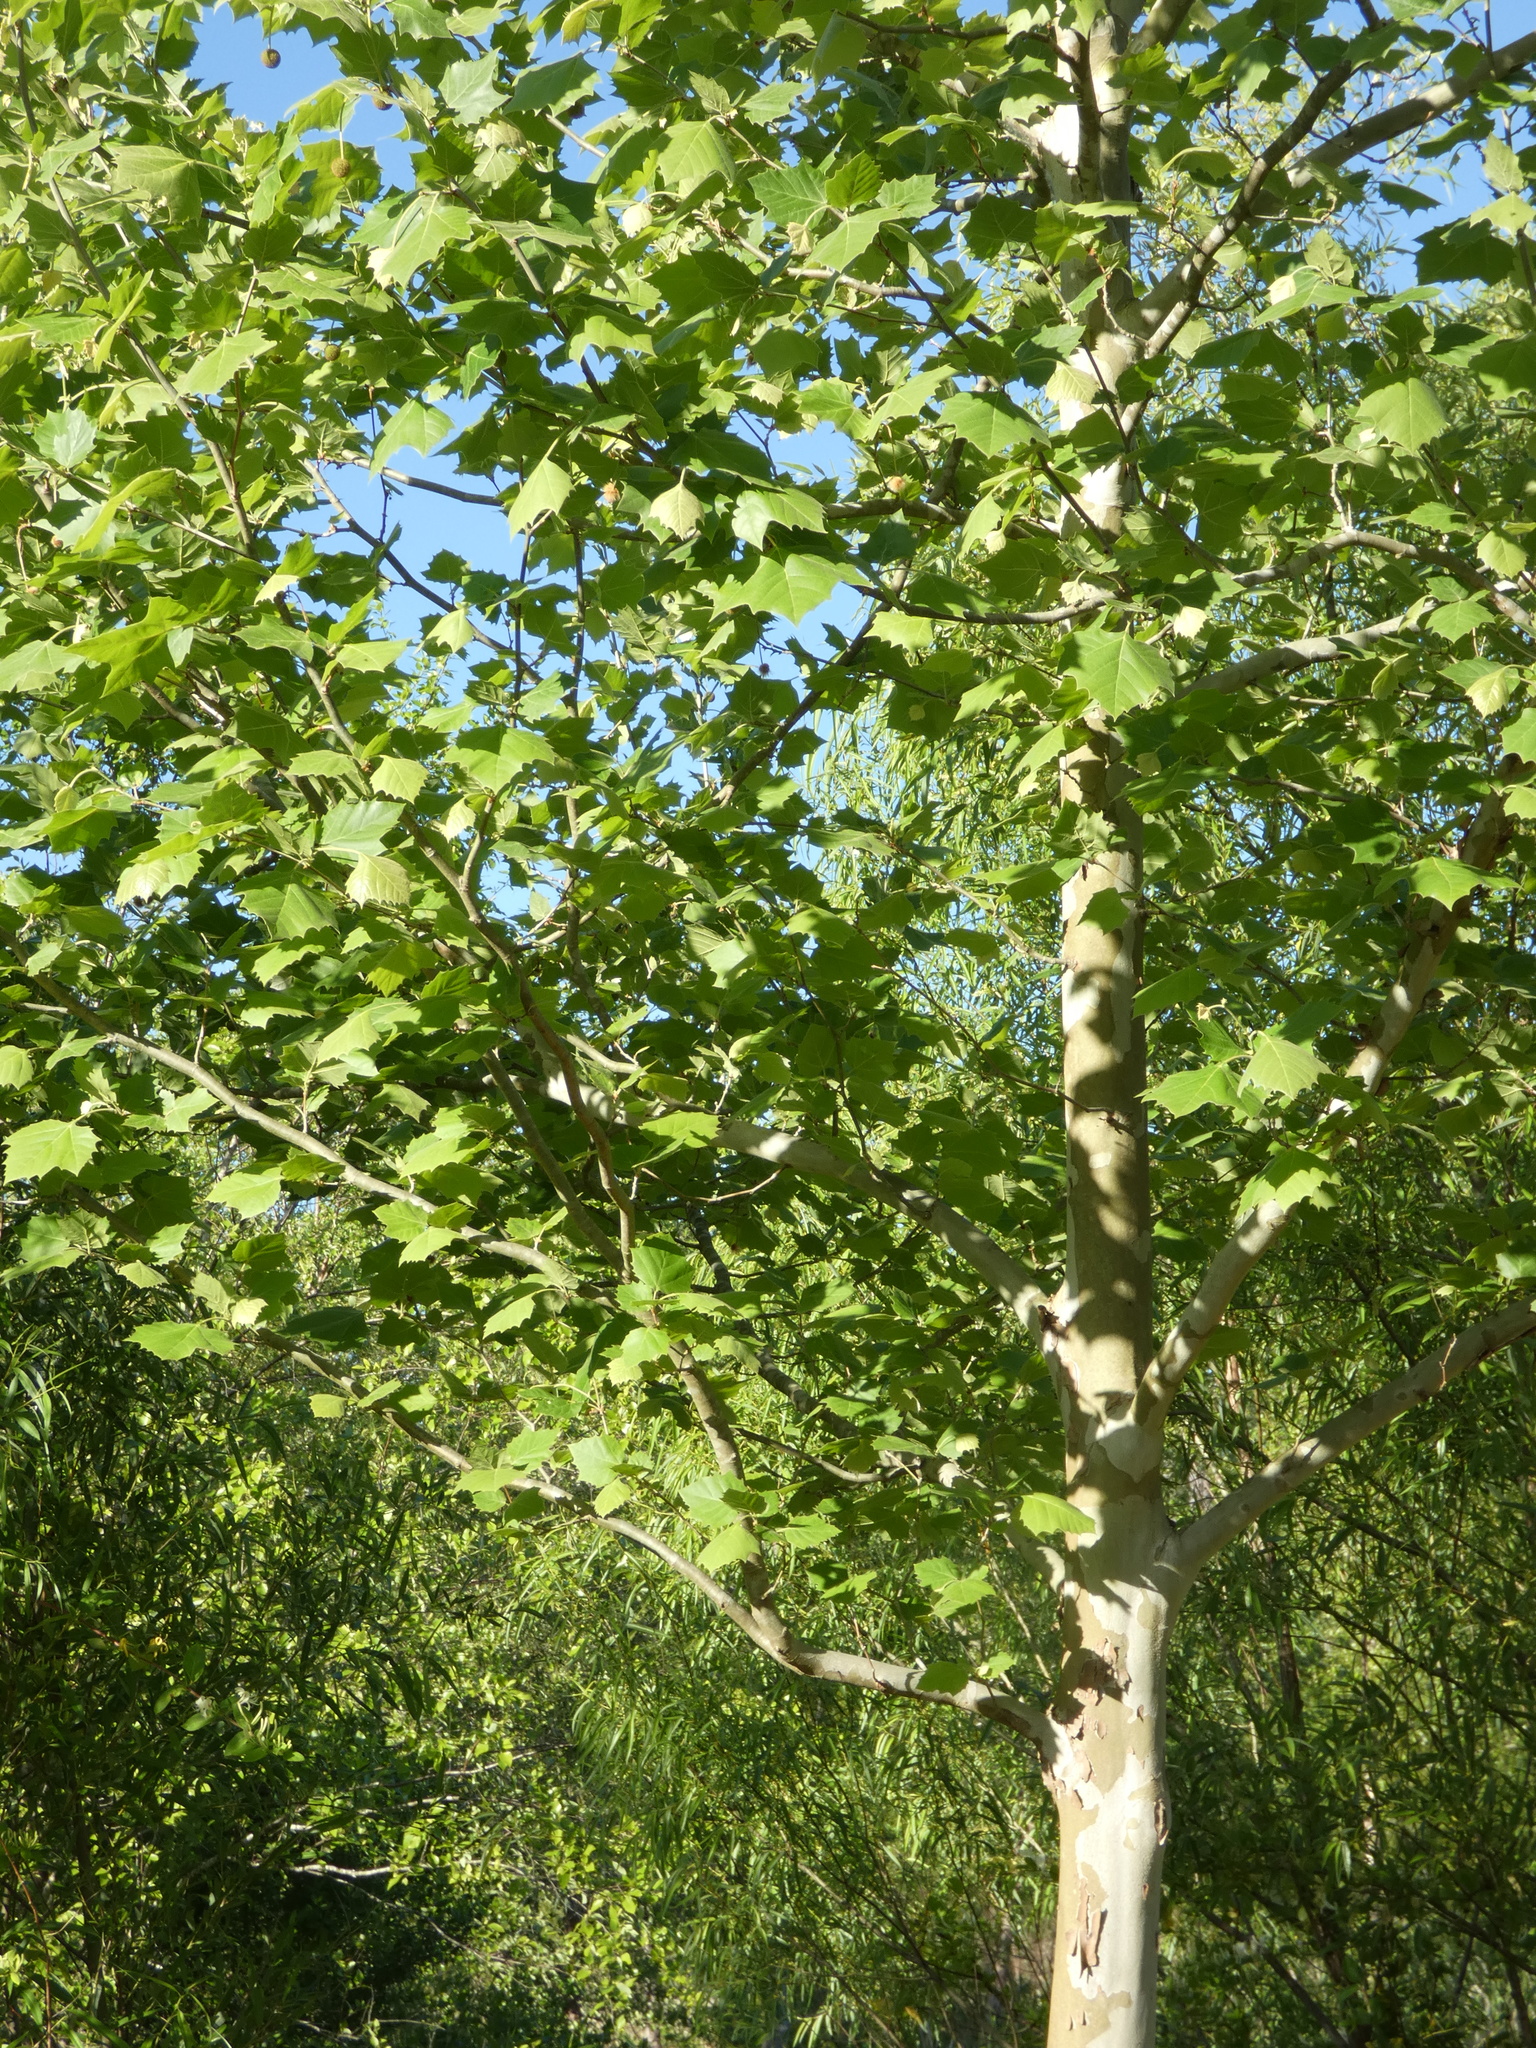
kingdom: Plantae
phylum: Tracheophyta
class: Magnoliopsida
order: Proteales
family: Platanaceae
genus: Platanus
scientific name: Platanus occidentalis
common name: American sycamore
